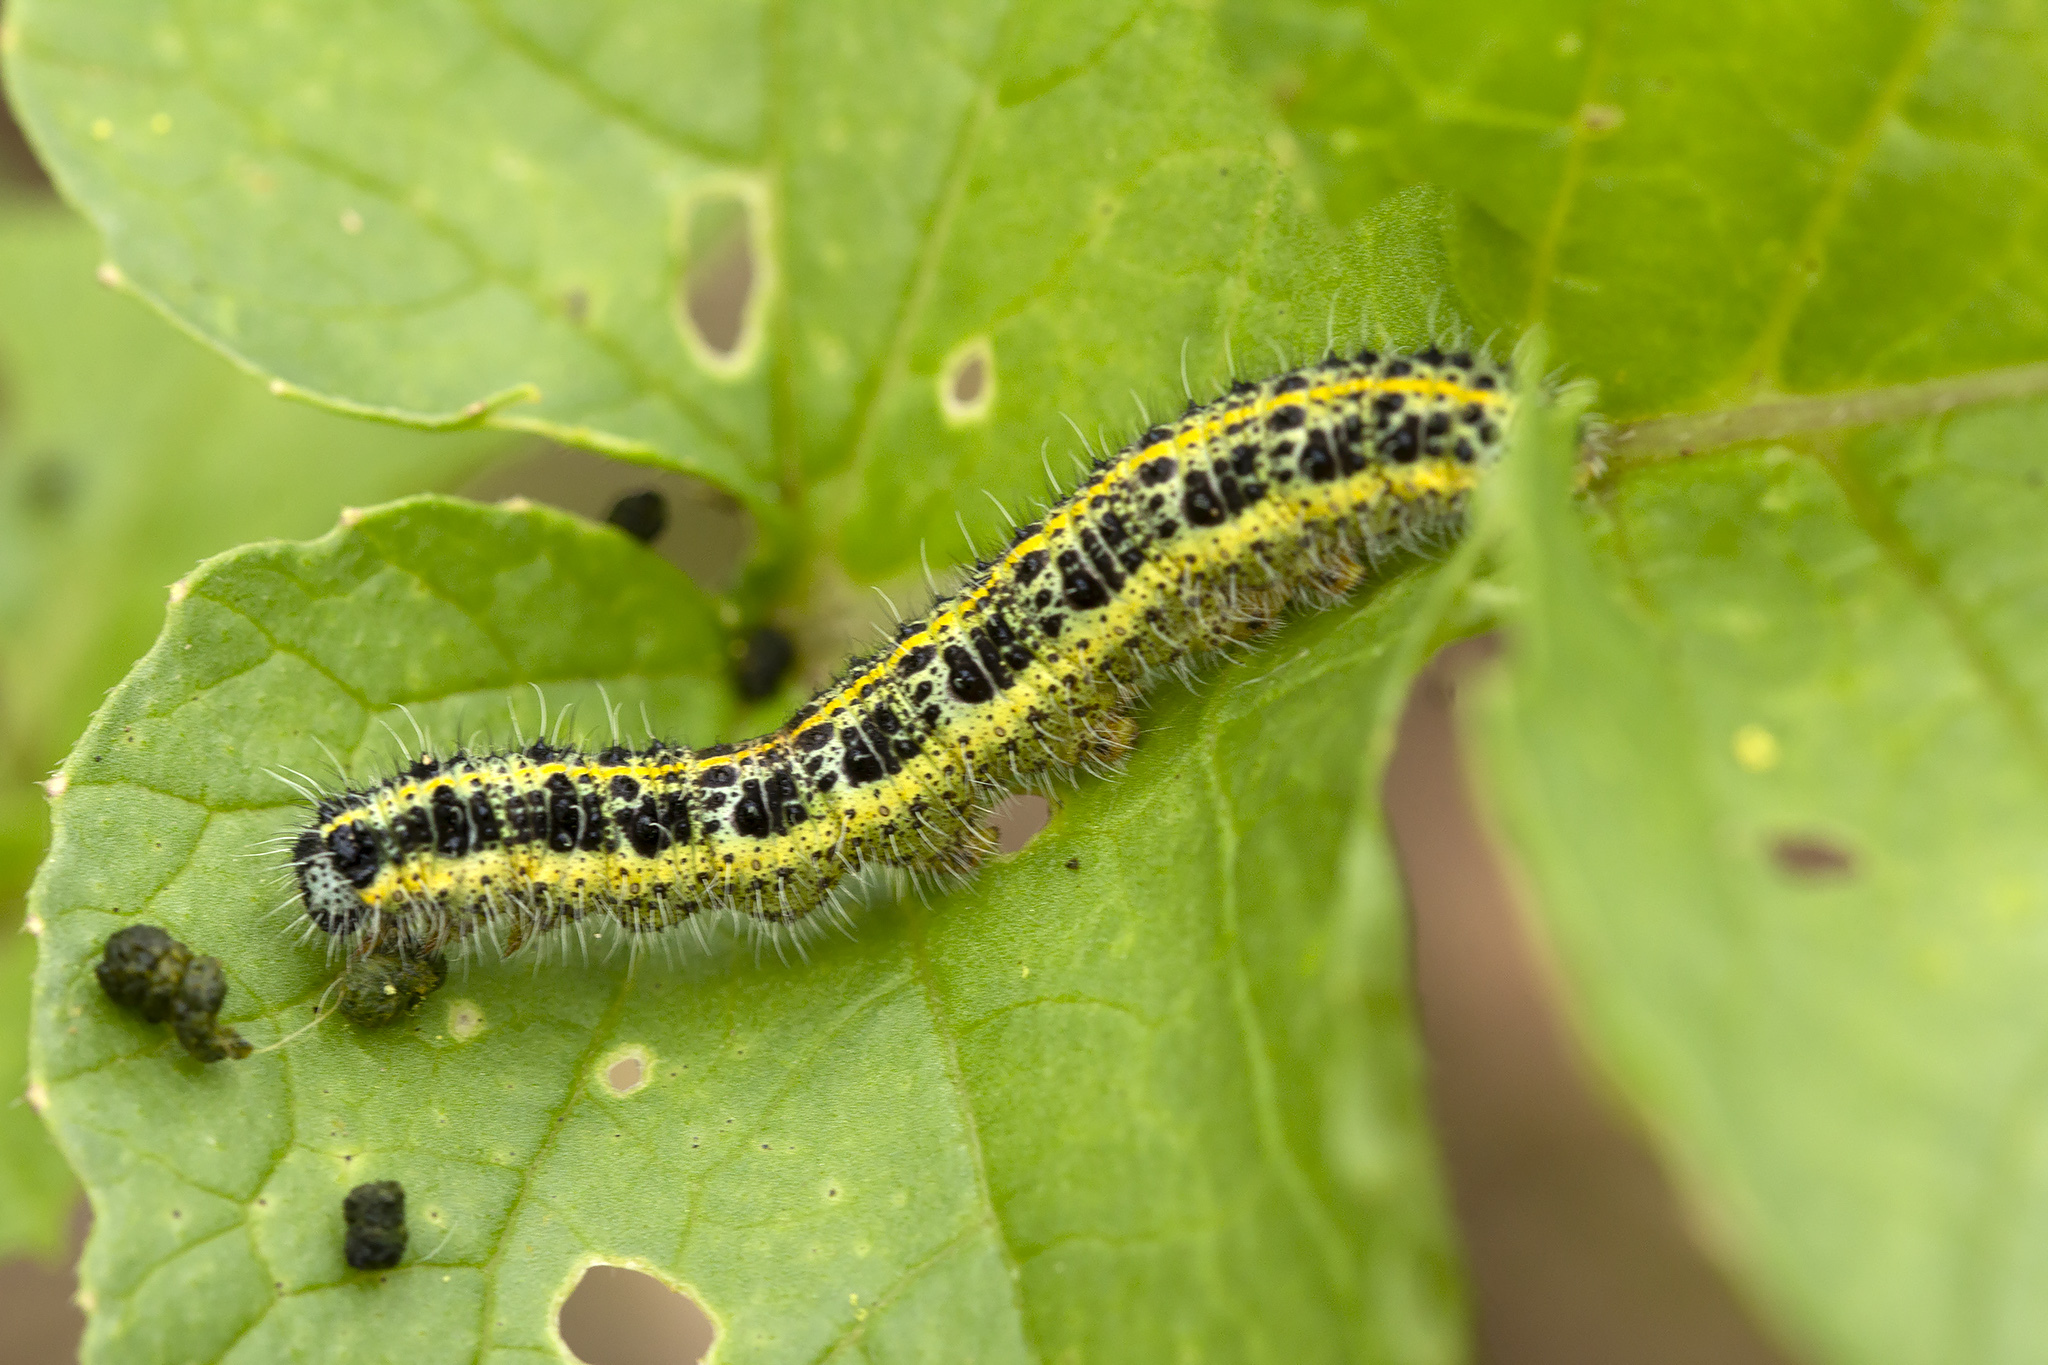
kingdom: Animalia
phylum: Arthropoda
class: Insecta
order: Lepidoptera
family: Pieridae
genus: Pieris
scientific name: Pieris brassicae
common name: Large white
